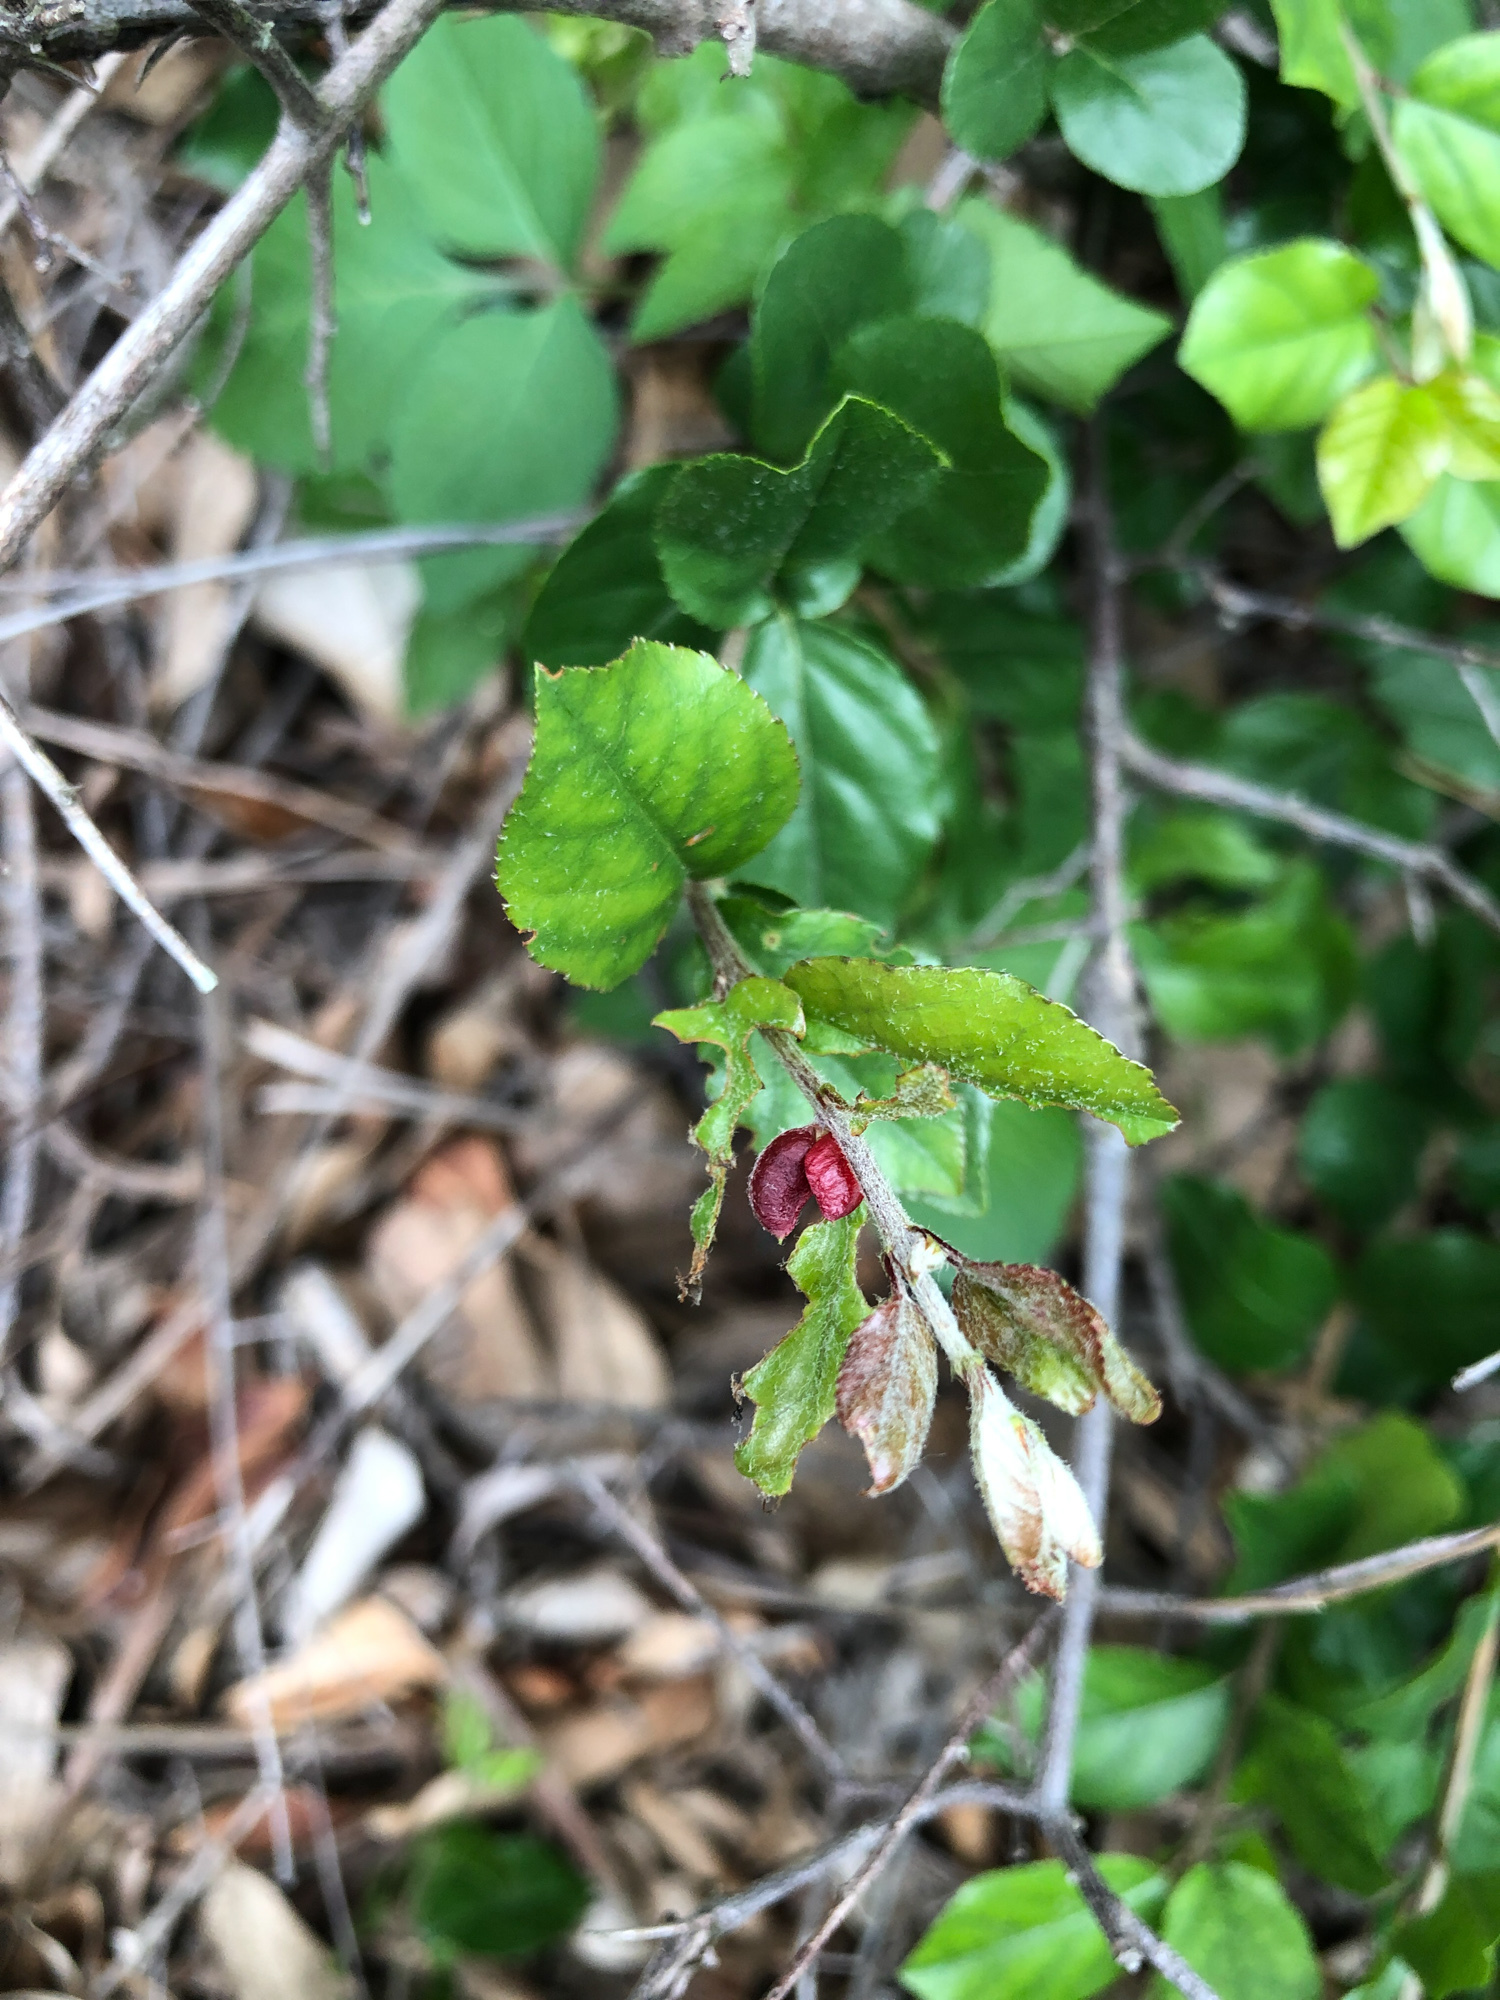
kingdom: Plantae
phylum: Tracheophyta
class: Magnoliopsida
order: Rosales
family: Rhamnaceae
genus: Sageretia
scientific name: Sageretia thea
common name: Pauper's-tea
